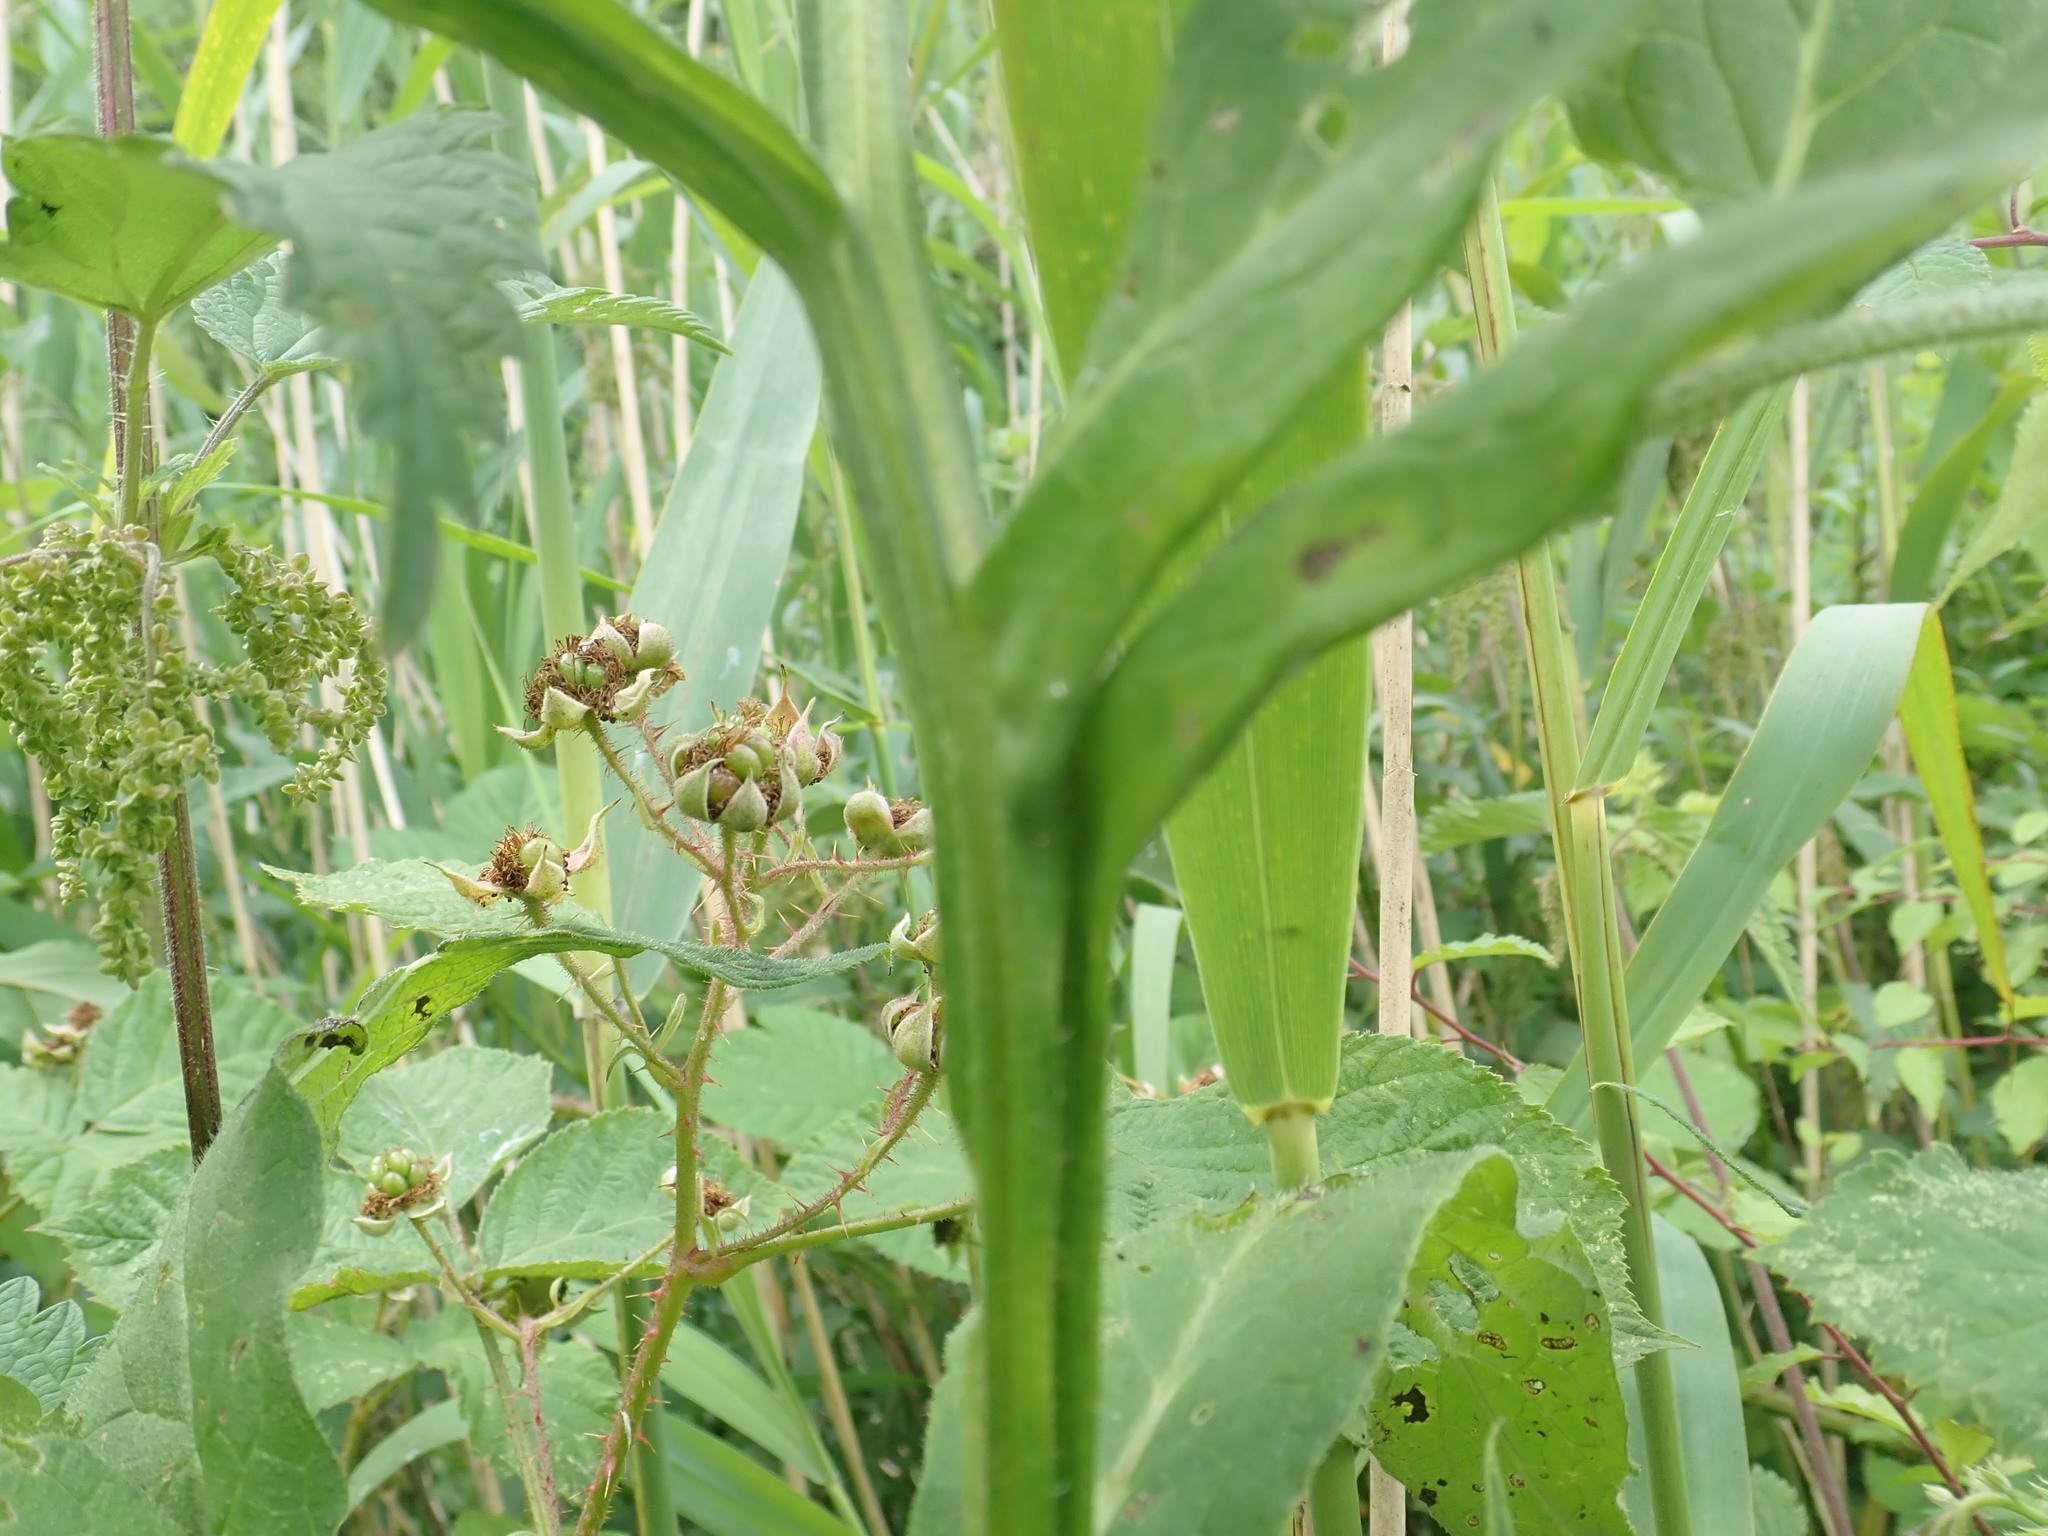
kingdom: Plantae
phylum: Tracheophyta
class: Magnoliopsida
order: Boraginales
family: Boraginaceae
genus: Symphytum
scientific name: Symphytum officinale
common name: Common comfrey
